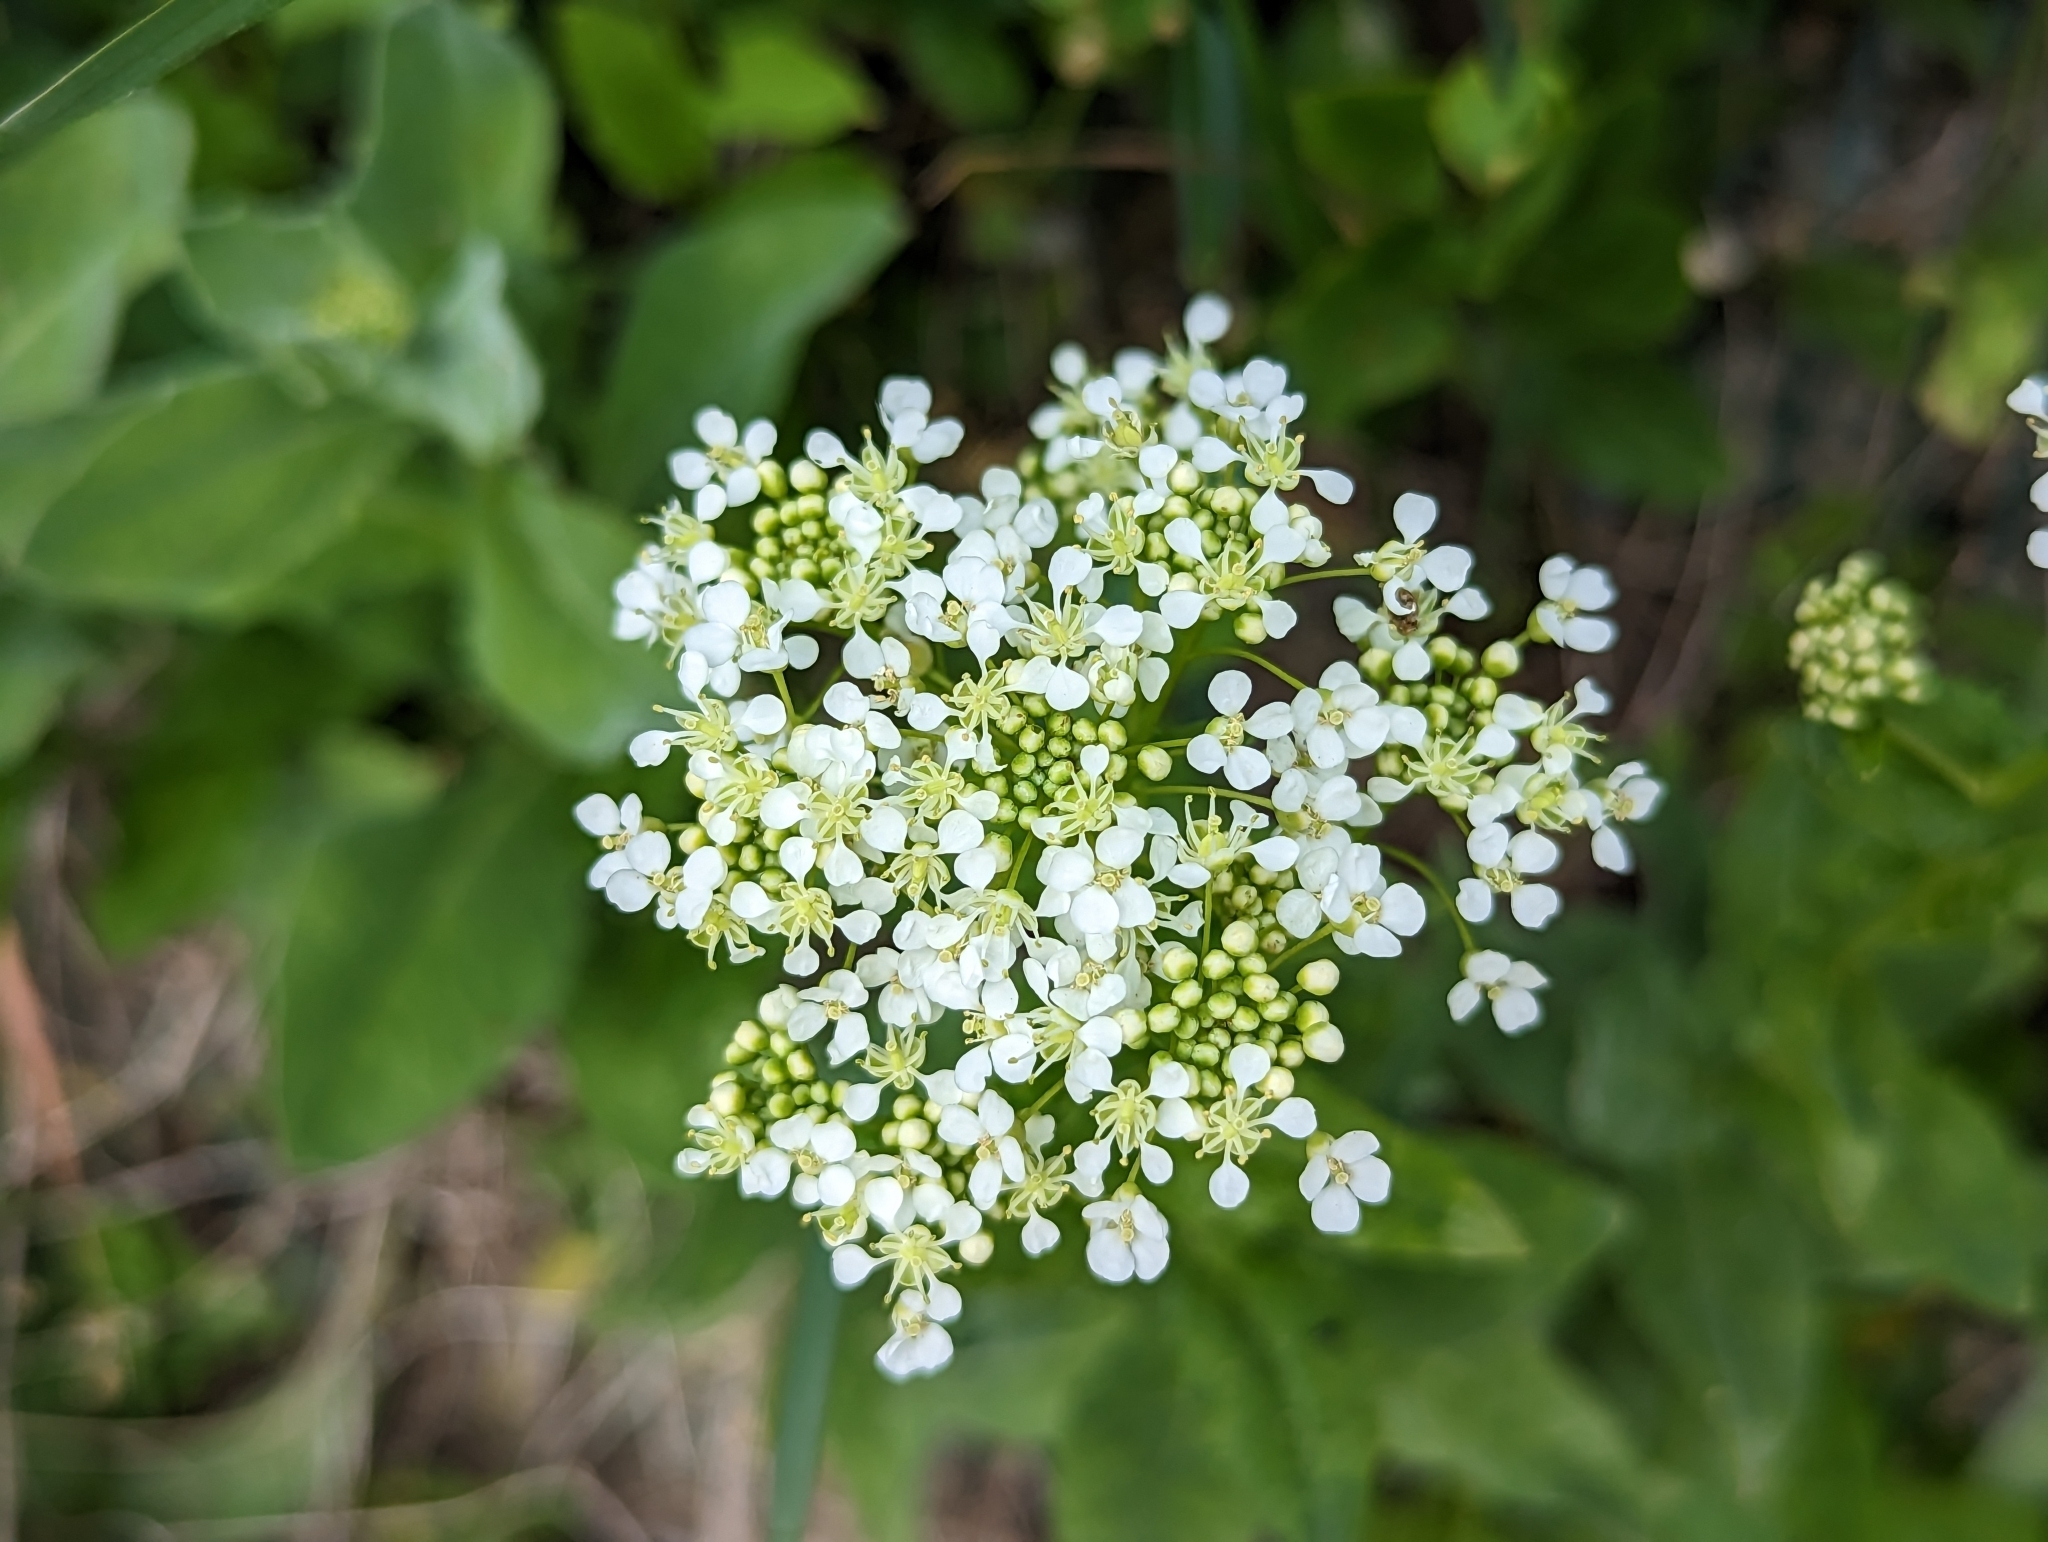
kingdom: Plantae
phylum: Tracheophyta
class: Magnoliopsida
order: Brassicales
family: Brassicaceae
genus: Lepidium
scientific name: Lepidium draba
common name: Hoary cress
